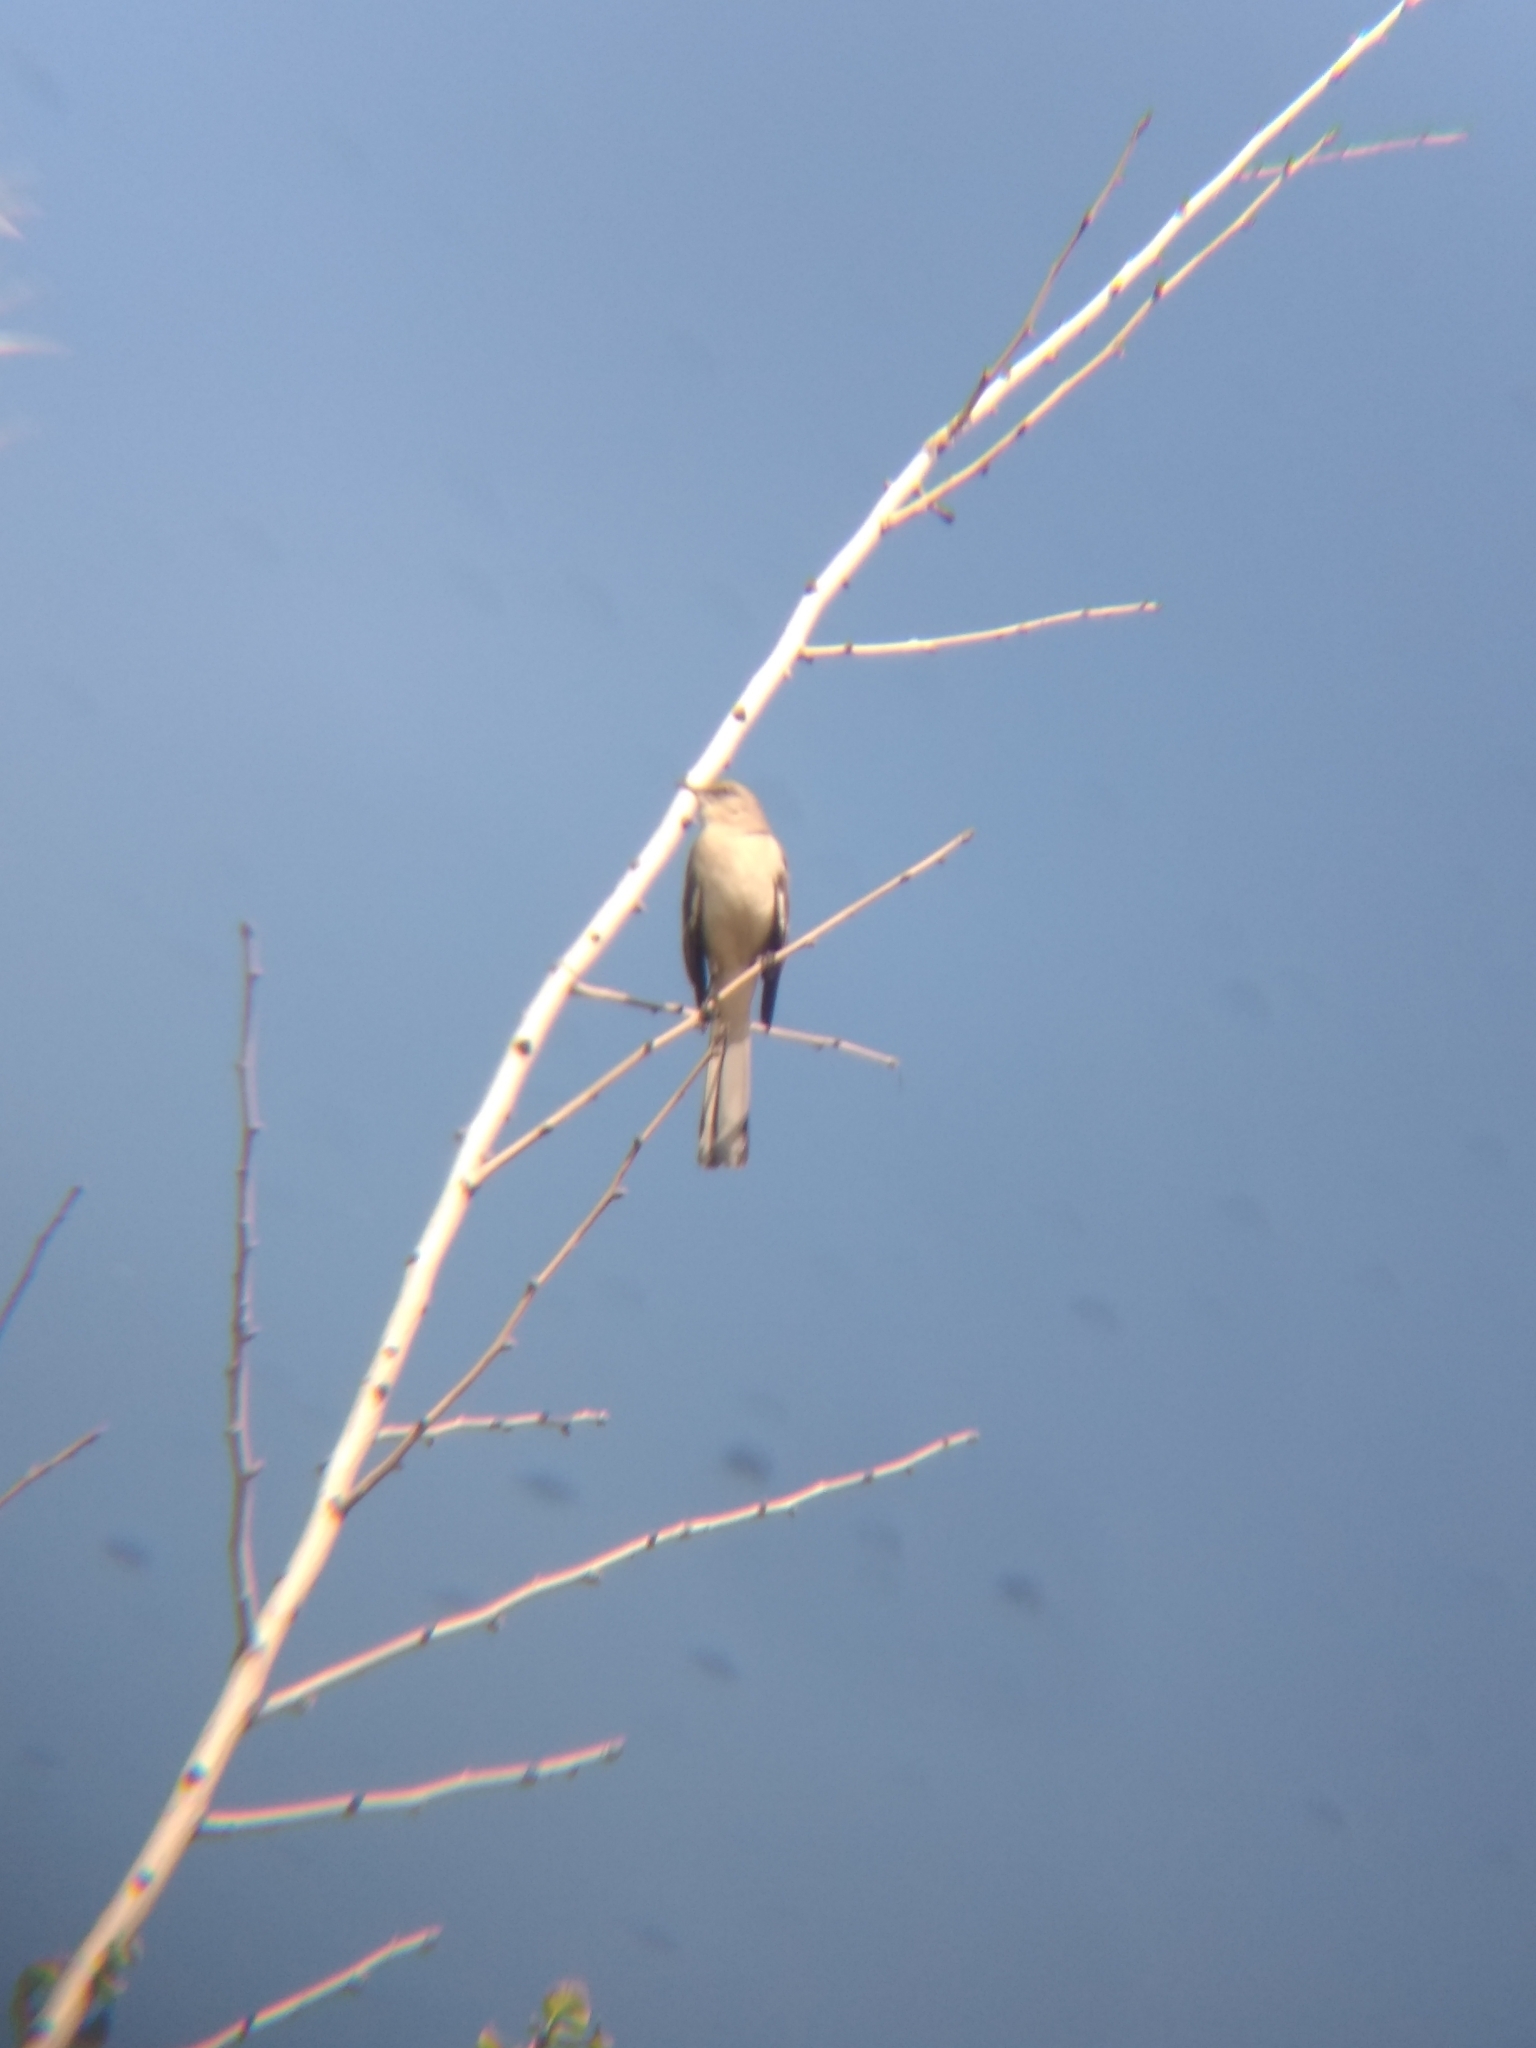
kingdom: Animalia
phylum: Chordata
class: Aves
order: Passeriformes
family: Mimidae
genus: Mimus
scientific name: Mimus polyglottos
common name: Northern mockingbird
